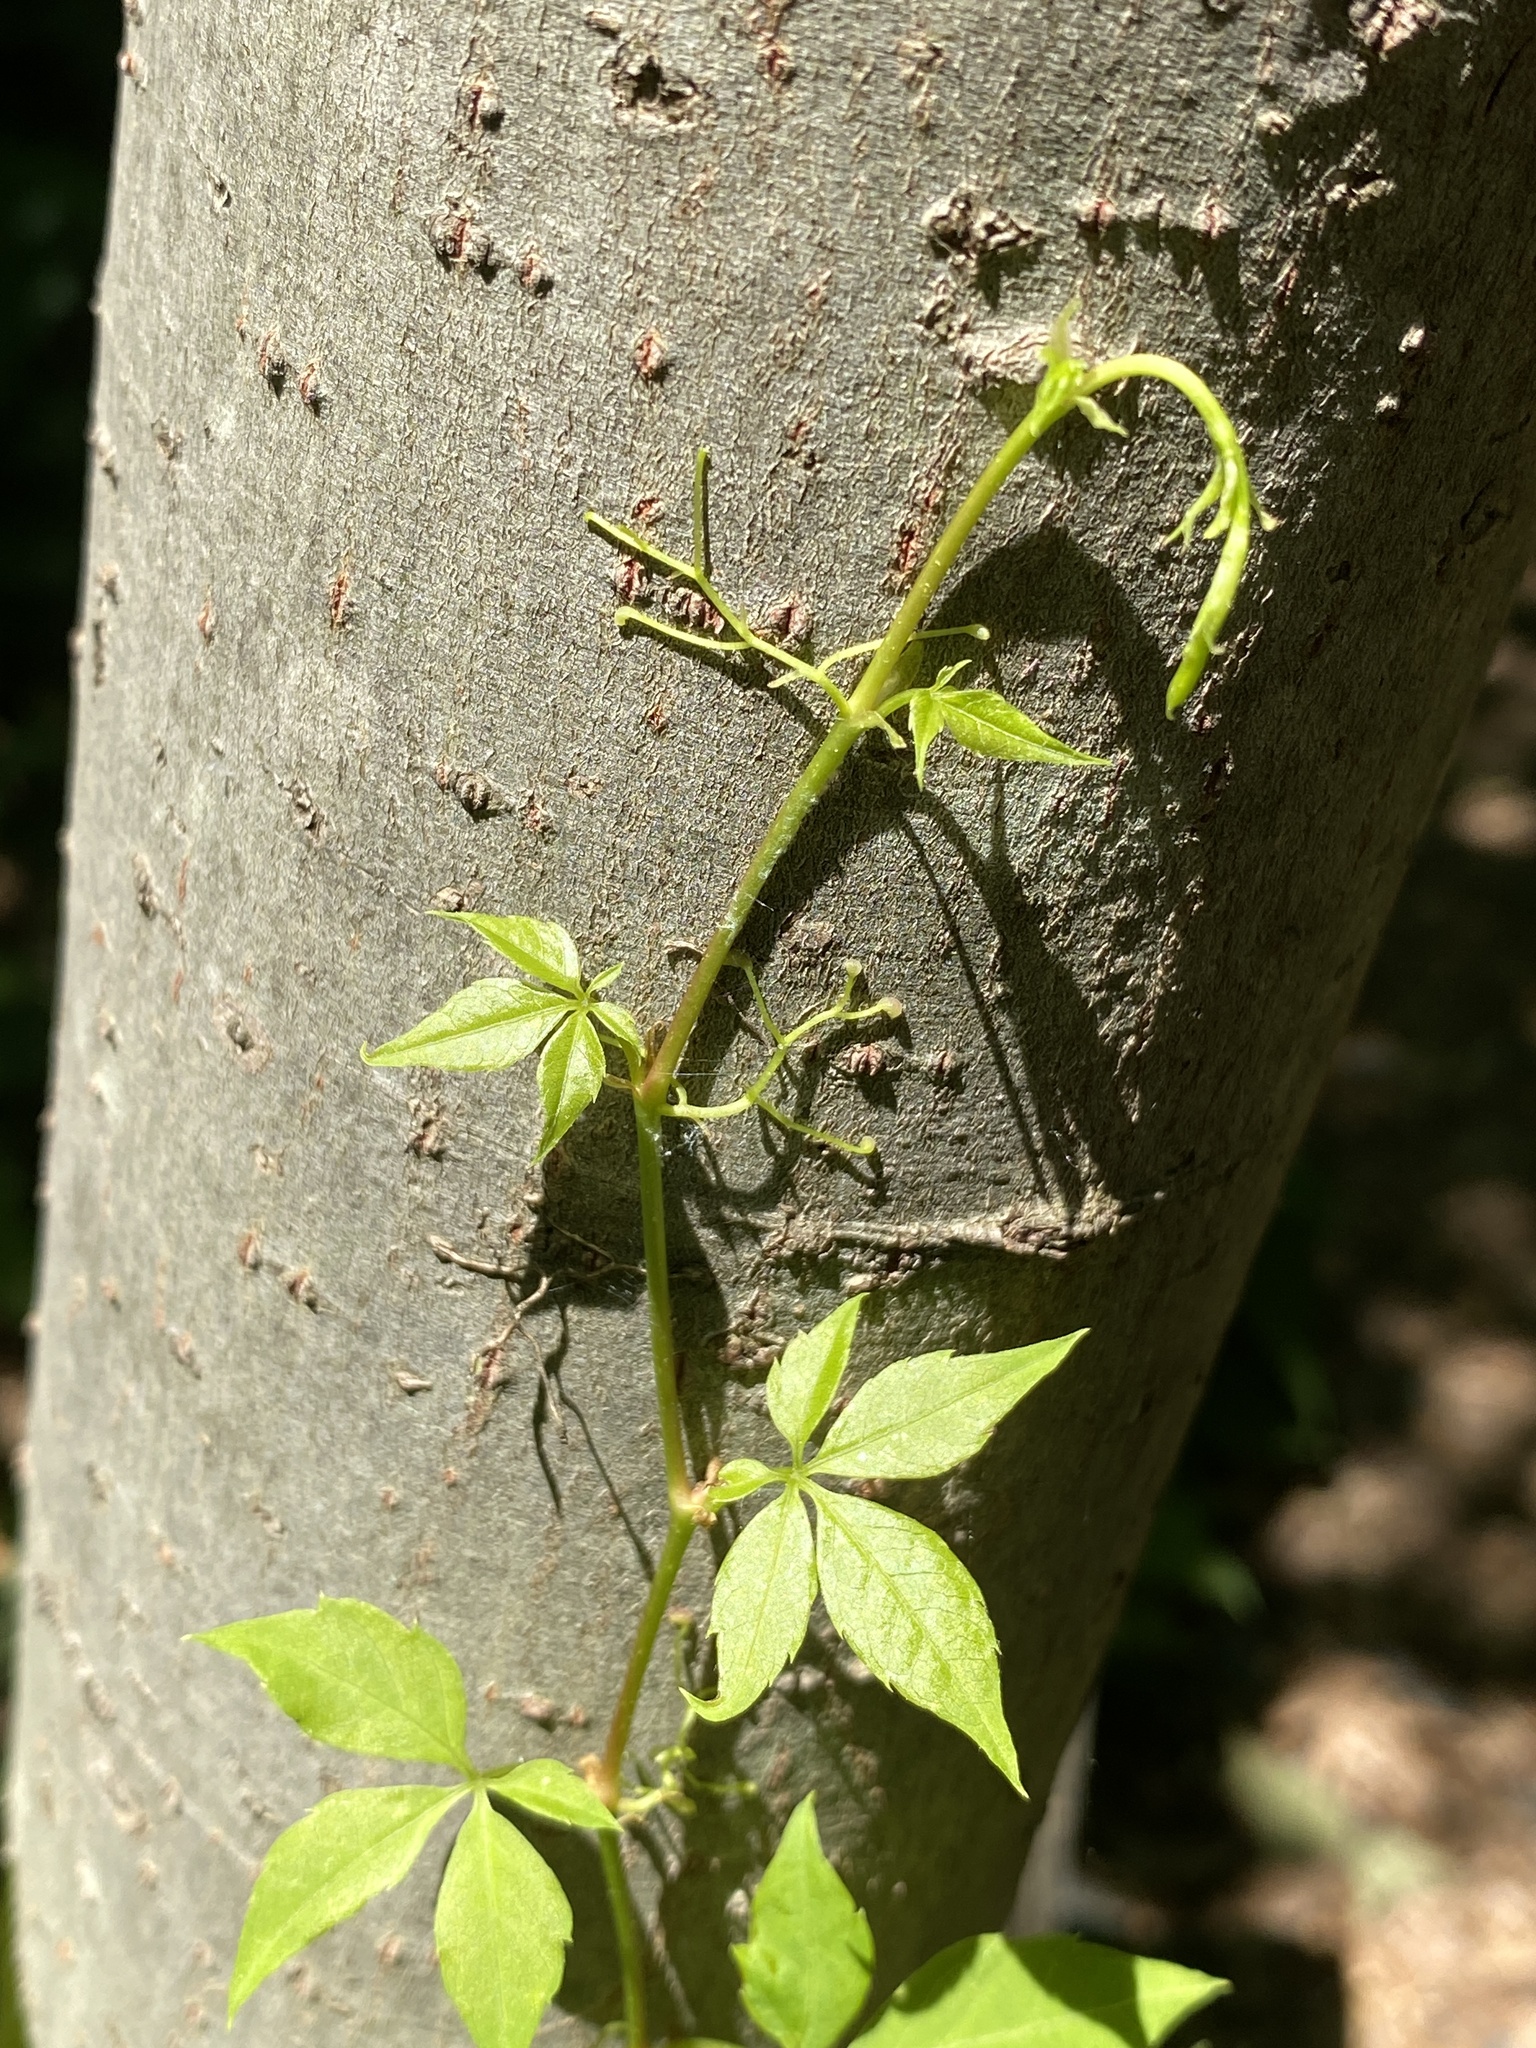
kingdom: Plantae
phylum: Tracheophyta
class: Magnoliopsida
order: Vitales
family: Vitaceae
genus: Parthenocissus
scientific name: Parthenocissus quinquefolia
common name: Virginia-creeper
